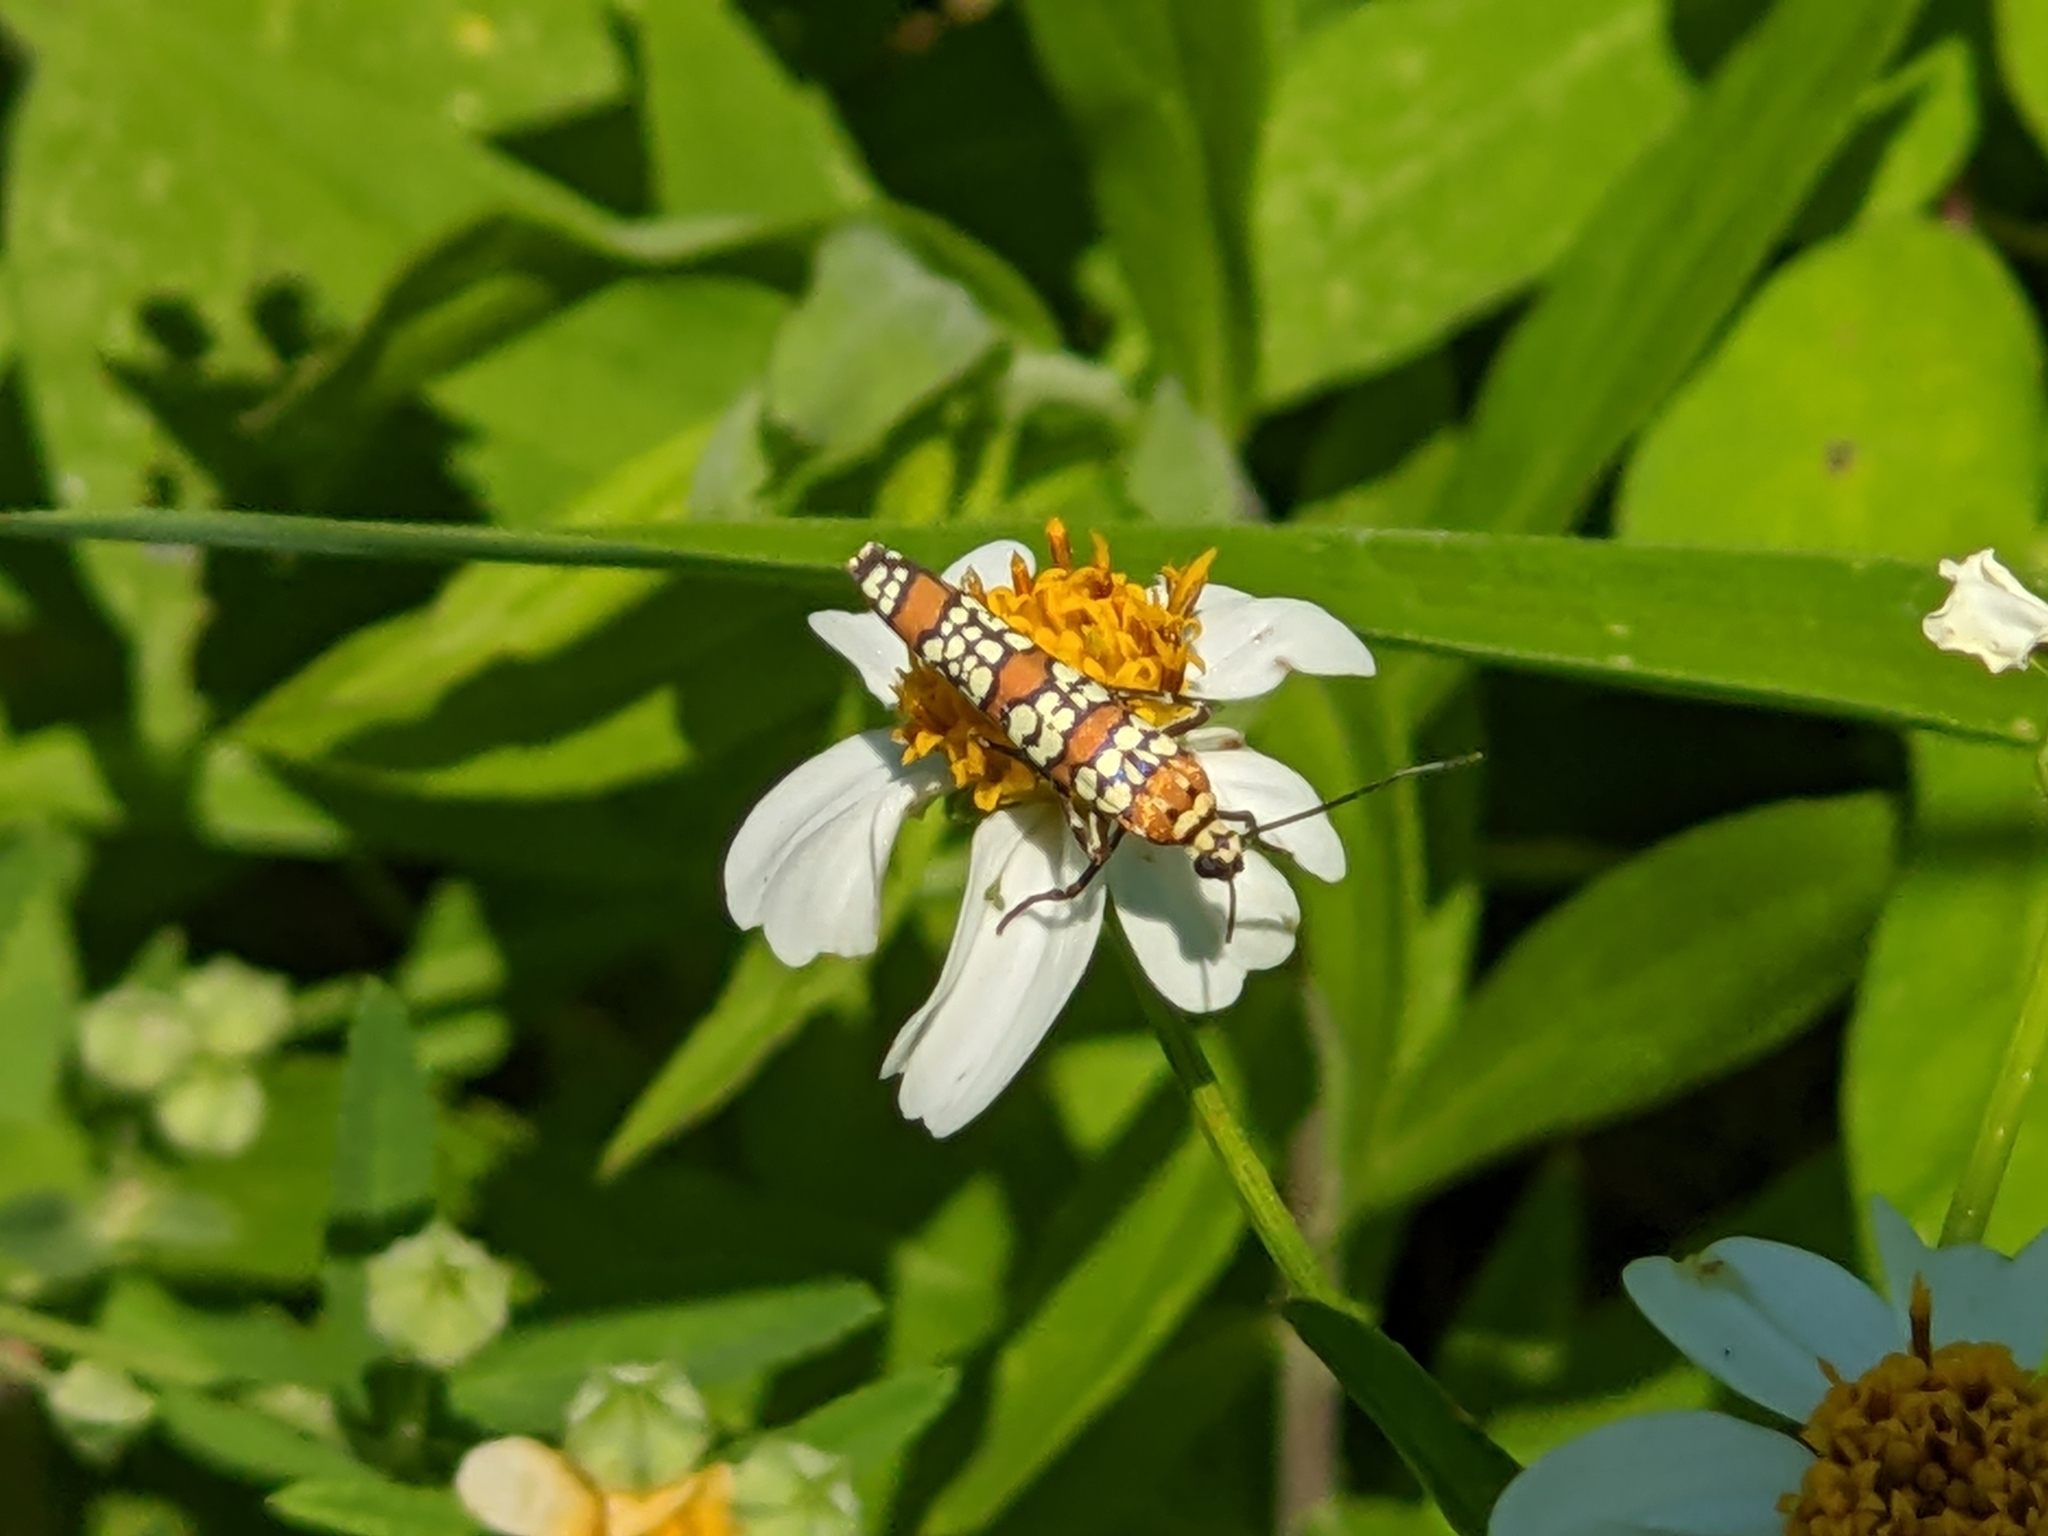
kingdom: Animalia
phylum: Arthropoda
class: Insecta
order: Lepidoptera
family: Attevidae
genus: Atteva
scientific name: Atteva punctella
